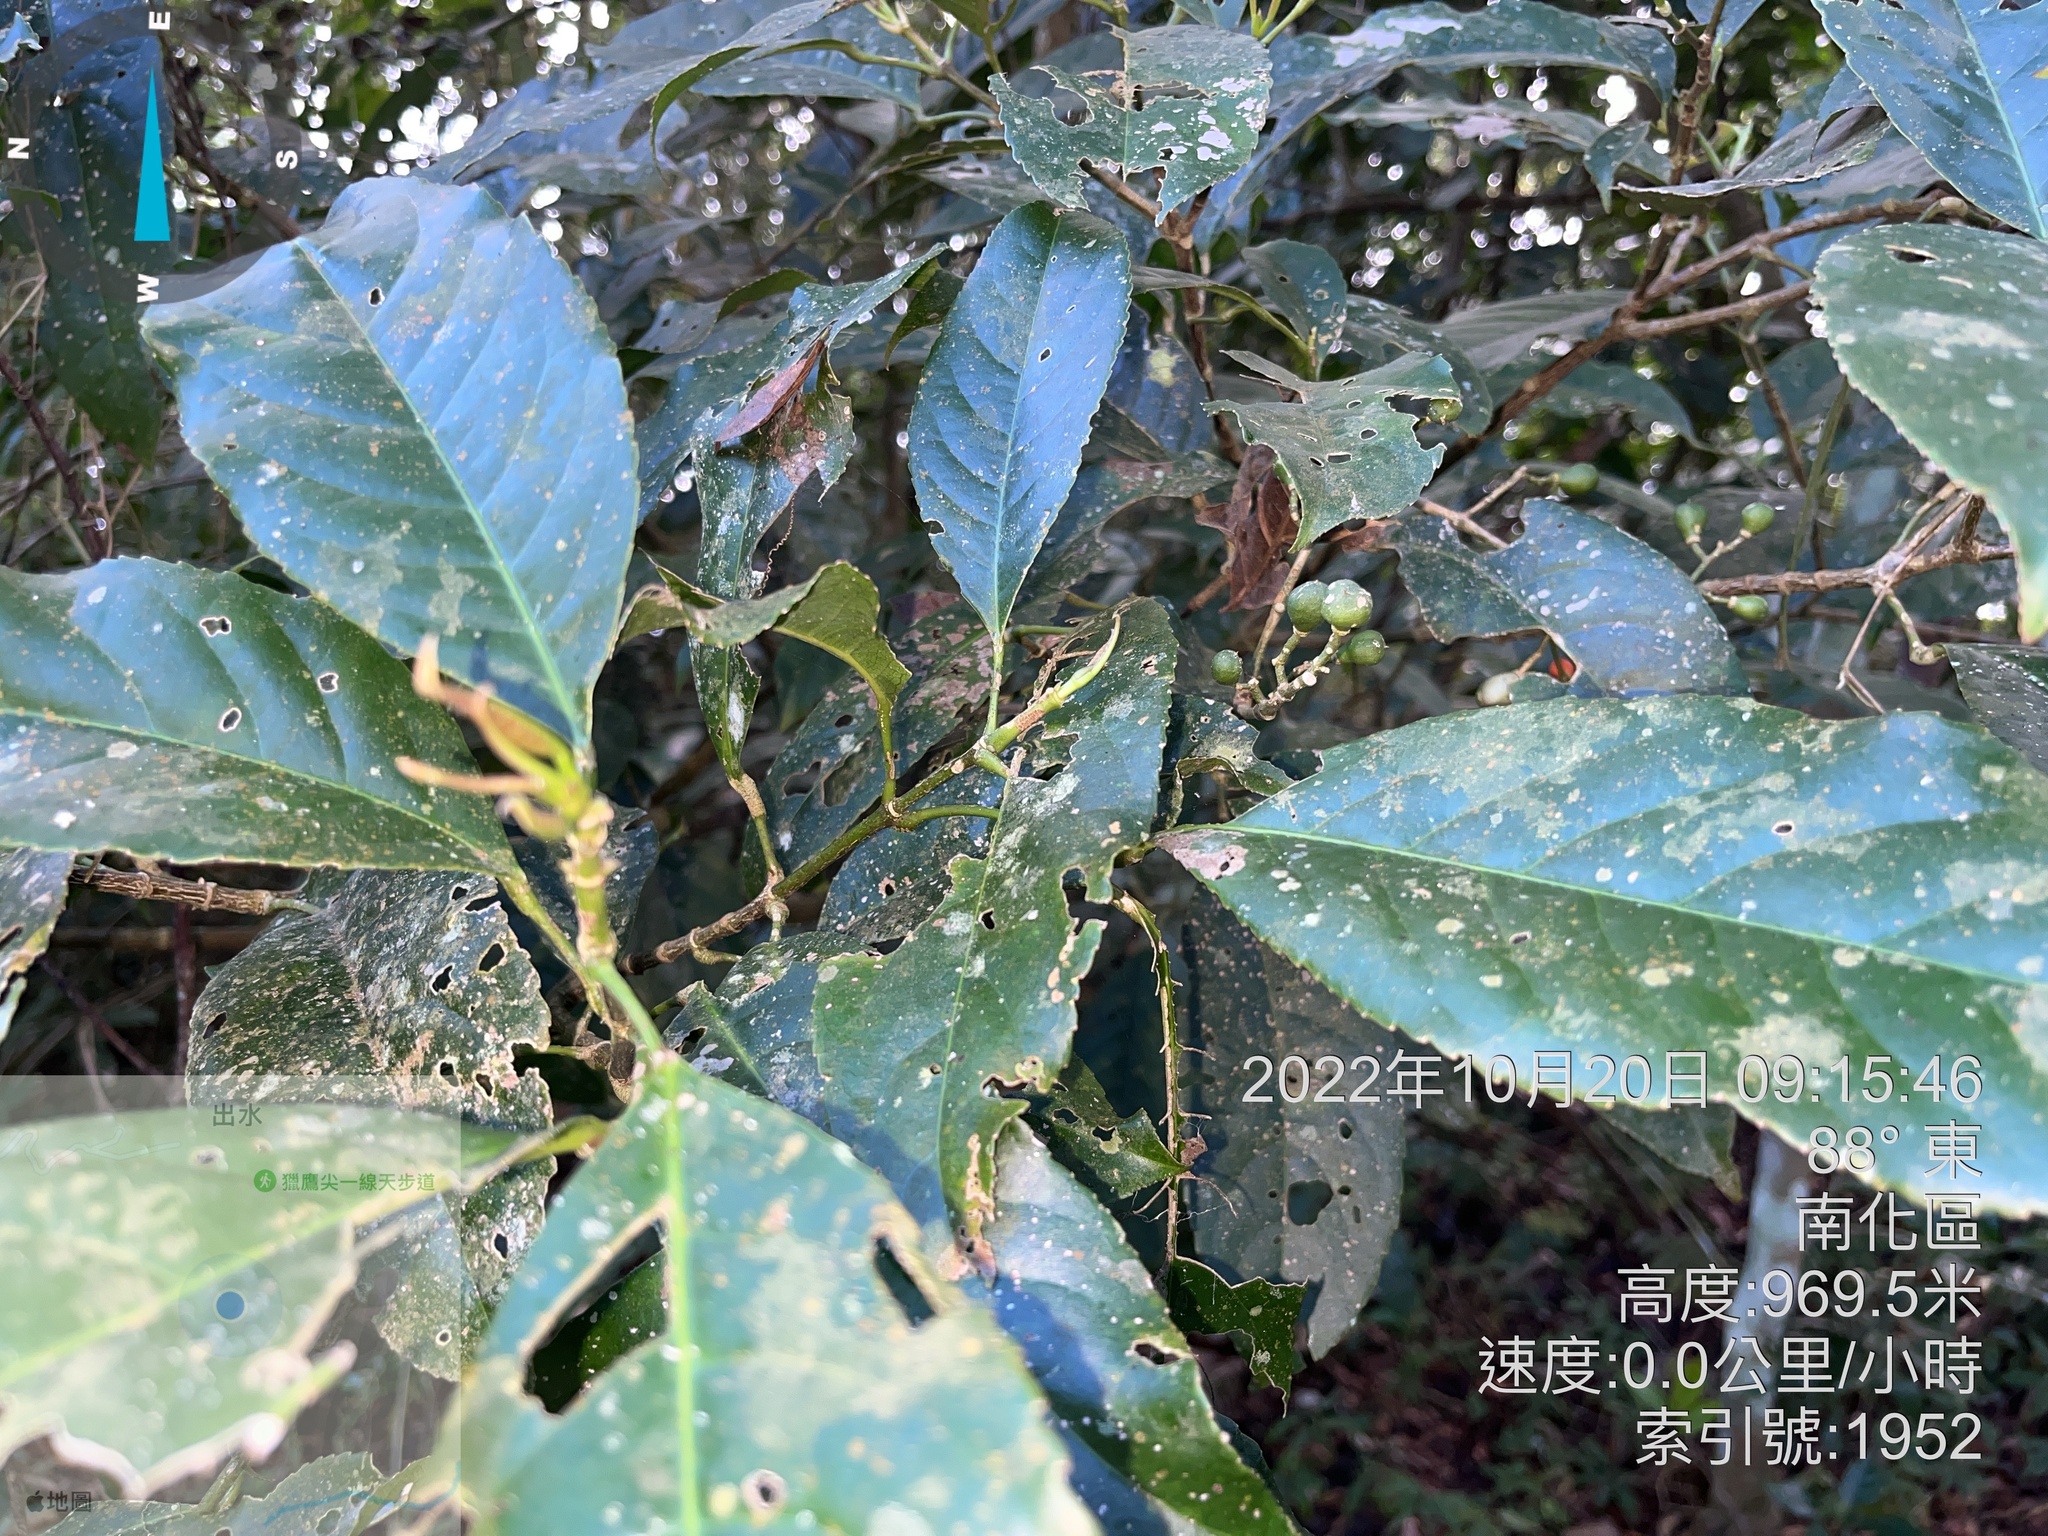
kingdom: Plantae
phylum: Tracheophyta
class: Magnoliopsida
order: Crossosomatales
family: Staphyleaceae
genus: Turpinia
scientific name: Turpinia formosana
